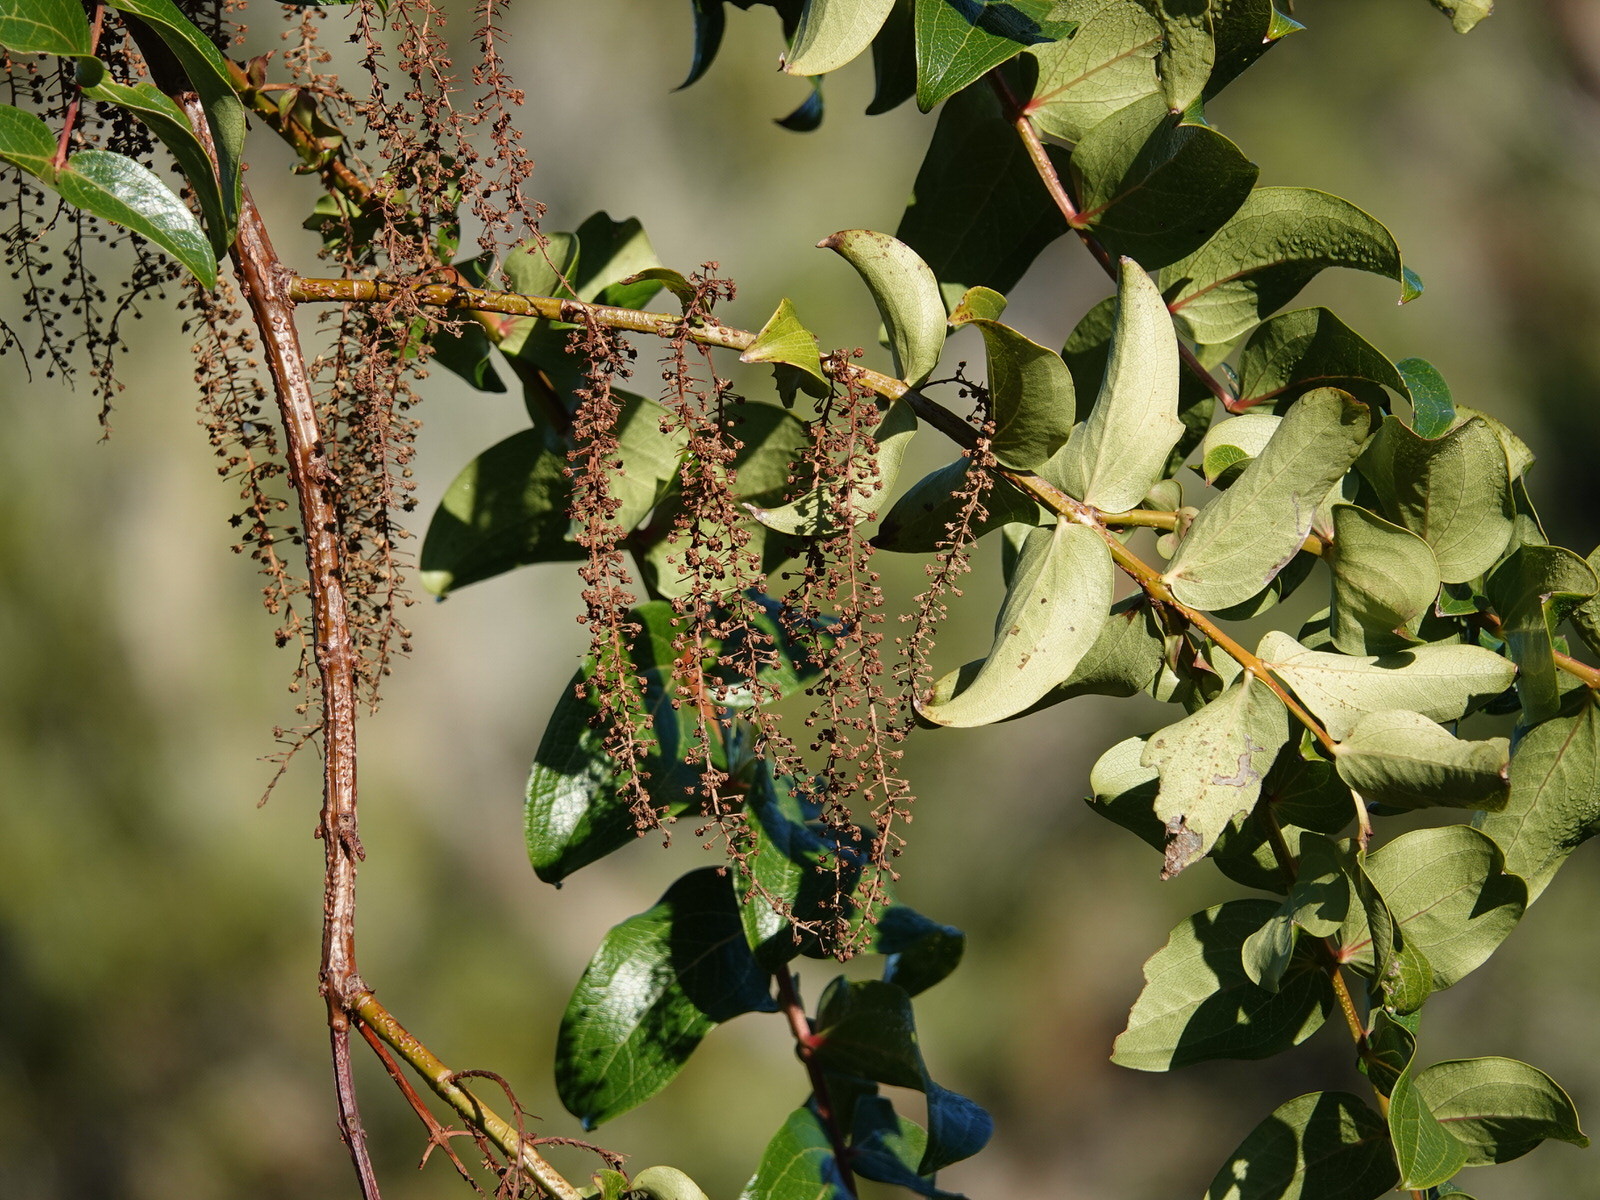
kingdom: Plantae
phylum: Tracheophyta
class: Magnoliopsida
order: Cucurbitales
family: Coriariaceae
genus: Coriaria
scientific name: Coriaria arborea
